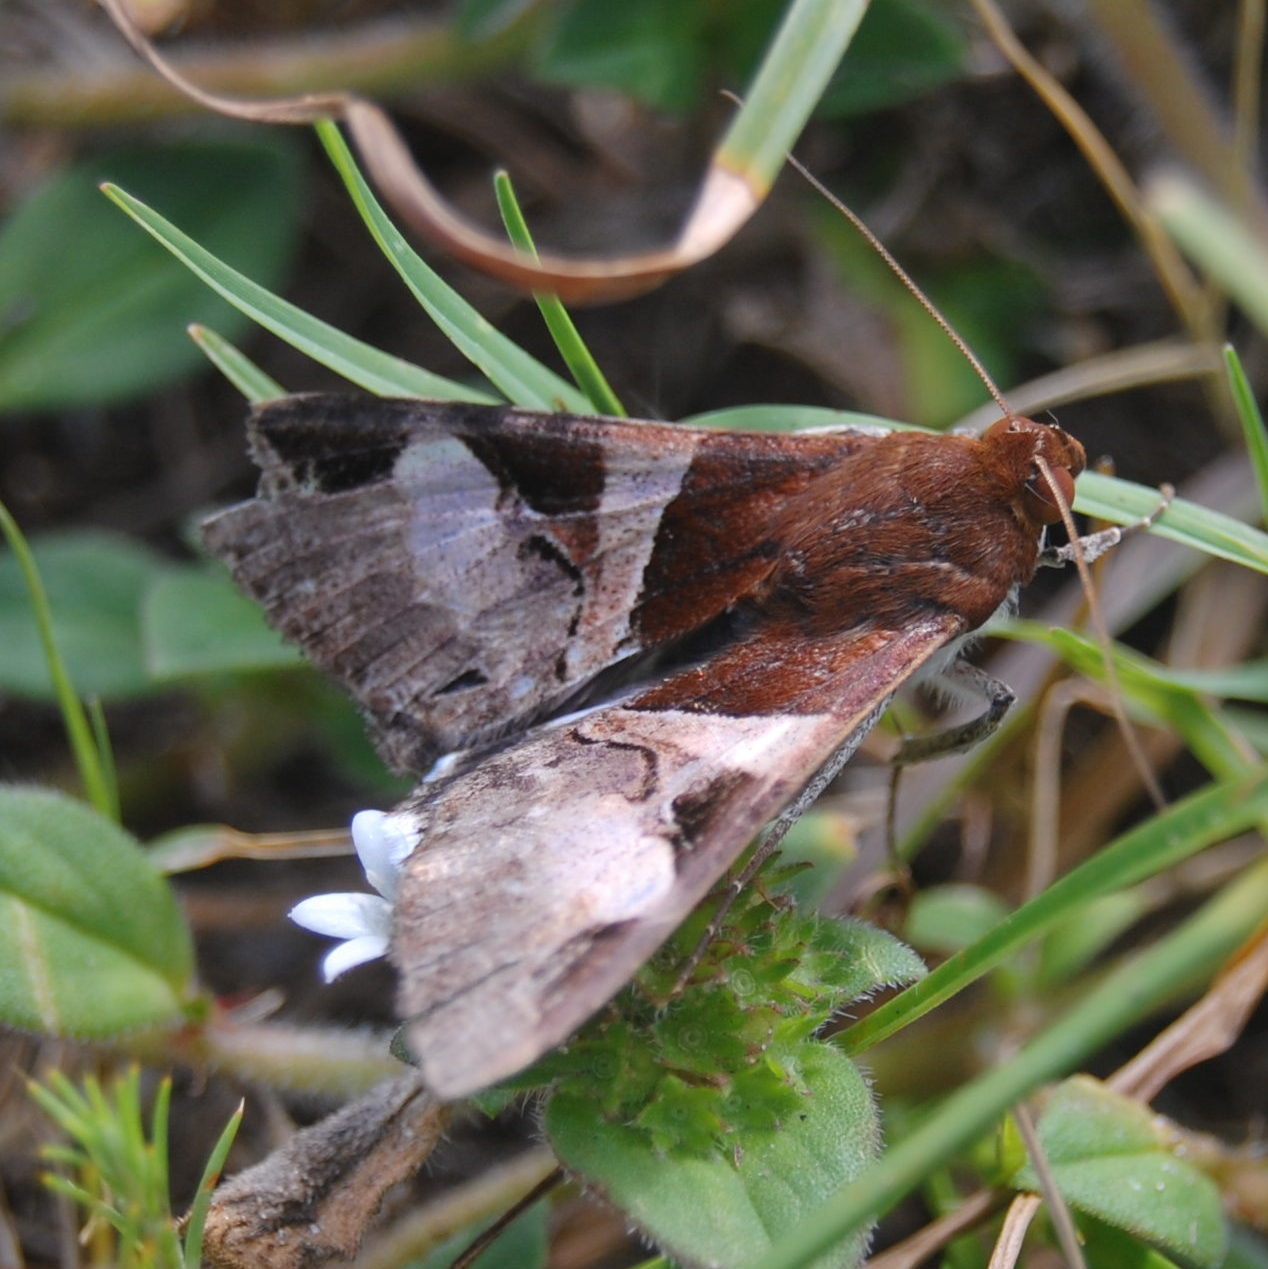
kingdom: Animalia
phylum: Arthropoda
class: Insecta
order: Lepidoptera
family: Erebidae
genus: Melipotis
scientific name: Melipotis fasciolaris
